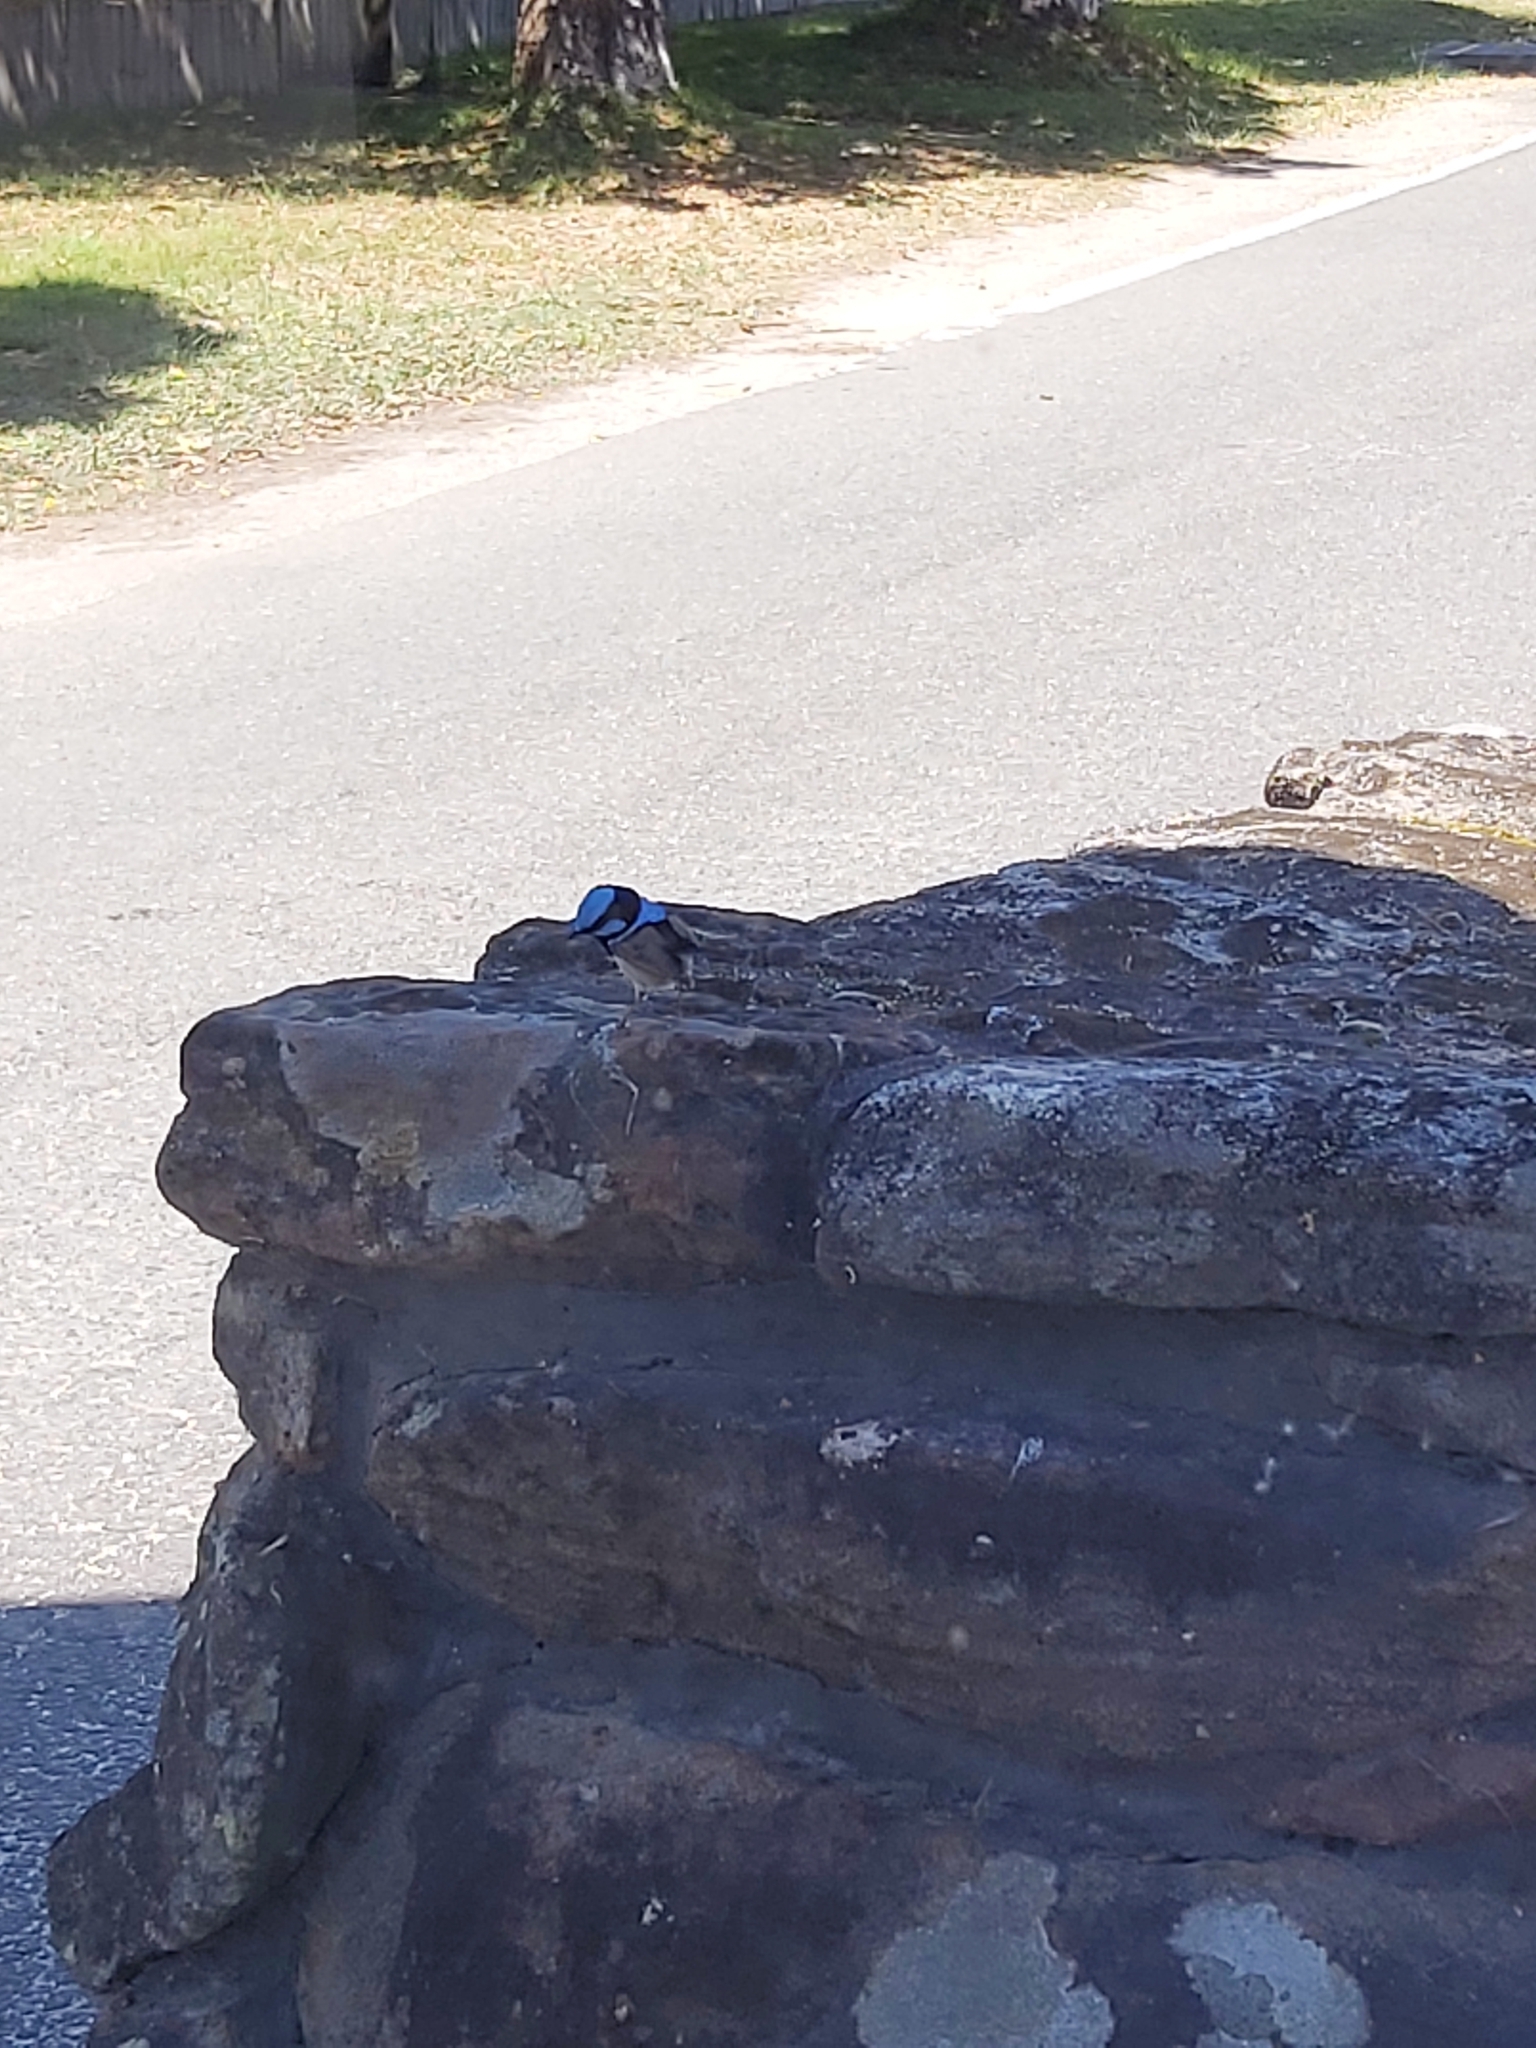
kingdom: Animalia
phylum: Chordata
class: Aves
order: Passeriformes
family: Maluridae
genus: Malurus
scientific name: Malurus cyaneus
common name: Superb fairywren
